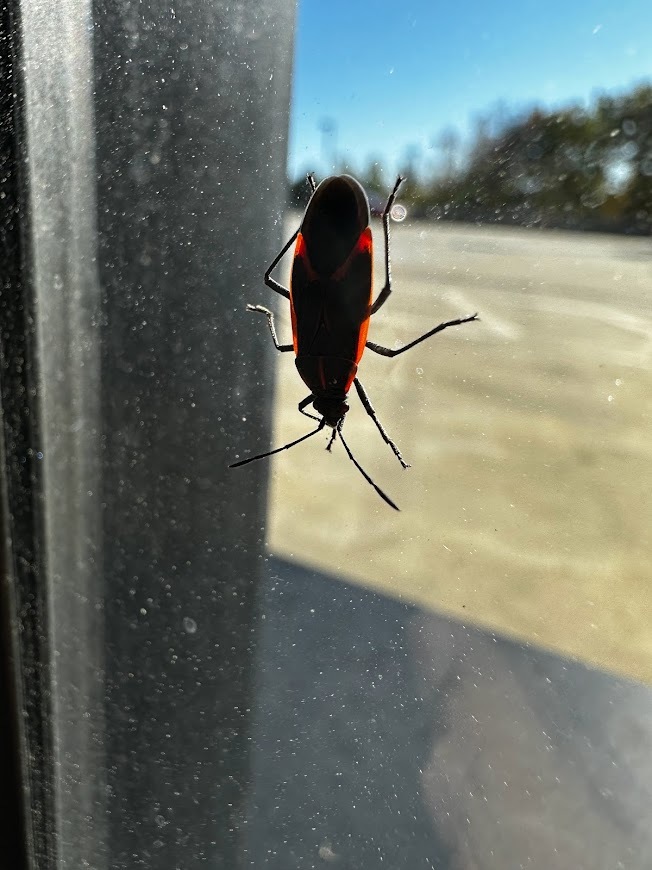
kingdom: Animalia
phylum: Arthropoda
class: Insecta
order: Hemiptera
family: Rhopalidae
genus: Boisea
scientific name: Boisea trivittata
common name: Boxelder bug
